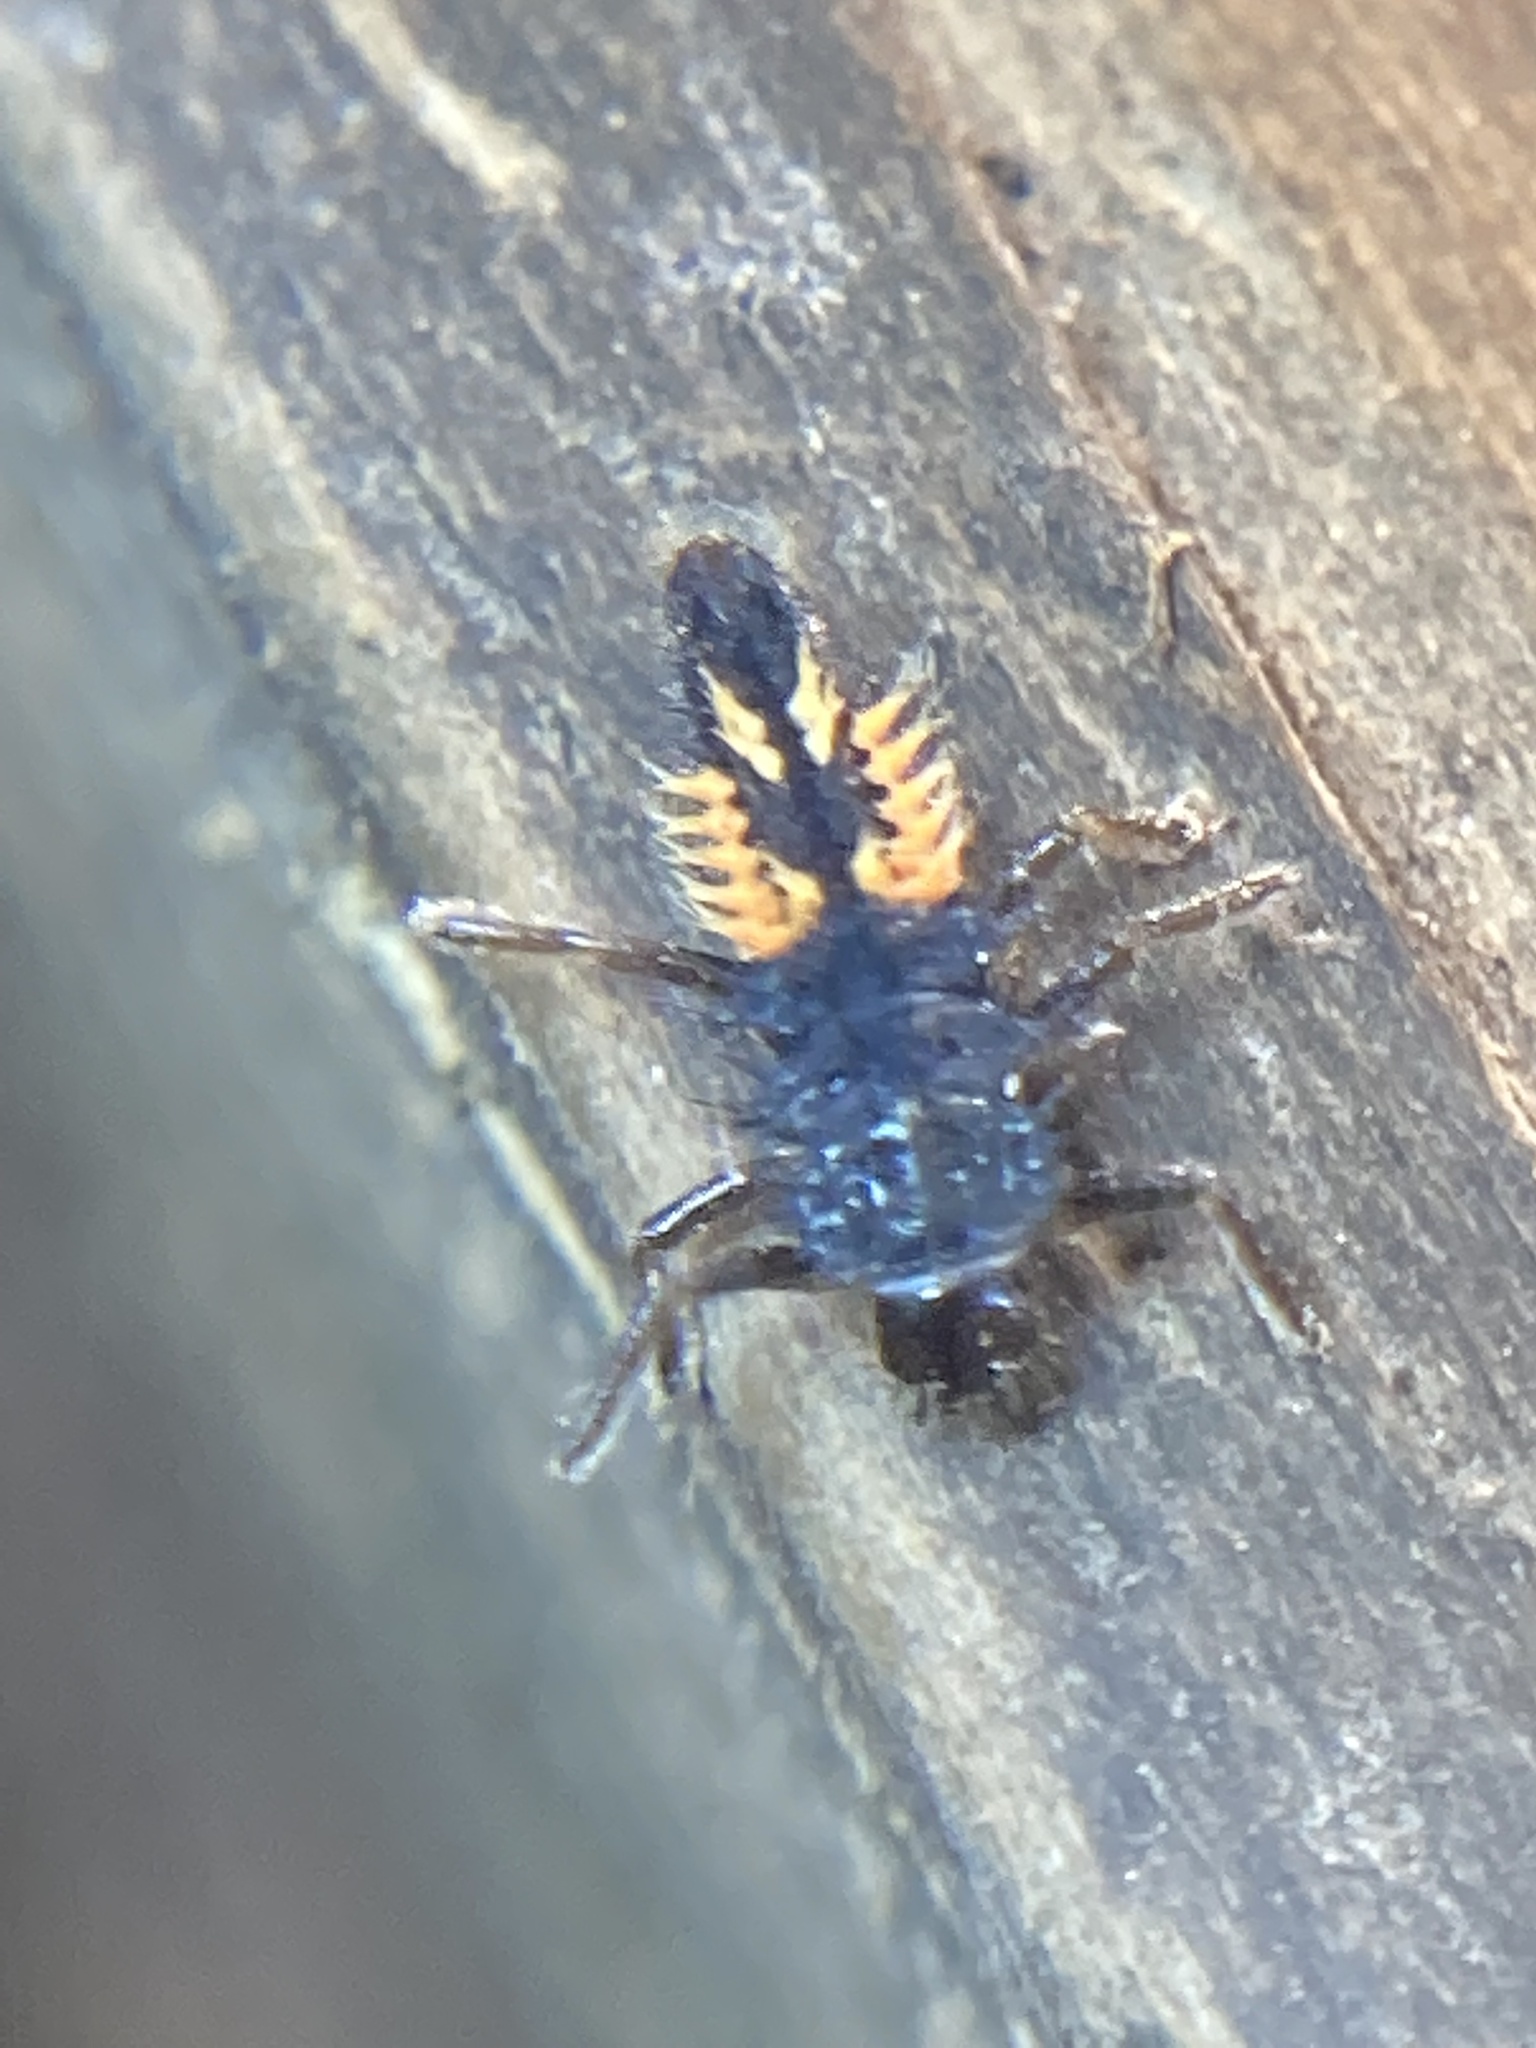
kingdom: Animalia
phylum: Arthropoda
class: Insecta
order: Coleoptera
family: Coccinellidae
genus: Harmonia
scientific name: Harmonia axyridis
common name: Harlequin ladybird
